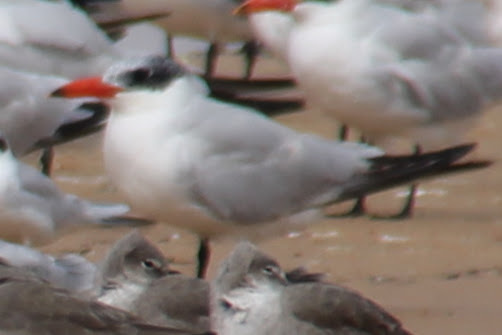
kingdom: Animalia
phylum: Chordata
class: Aves
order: Charadriiformes
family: Laridae
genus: Hydroprogne
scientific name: Hydroprogne caspia
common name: Caspian tern
